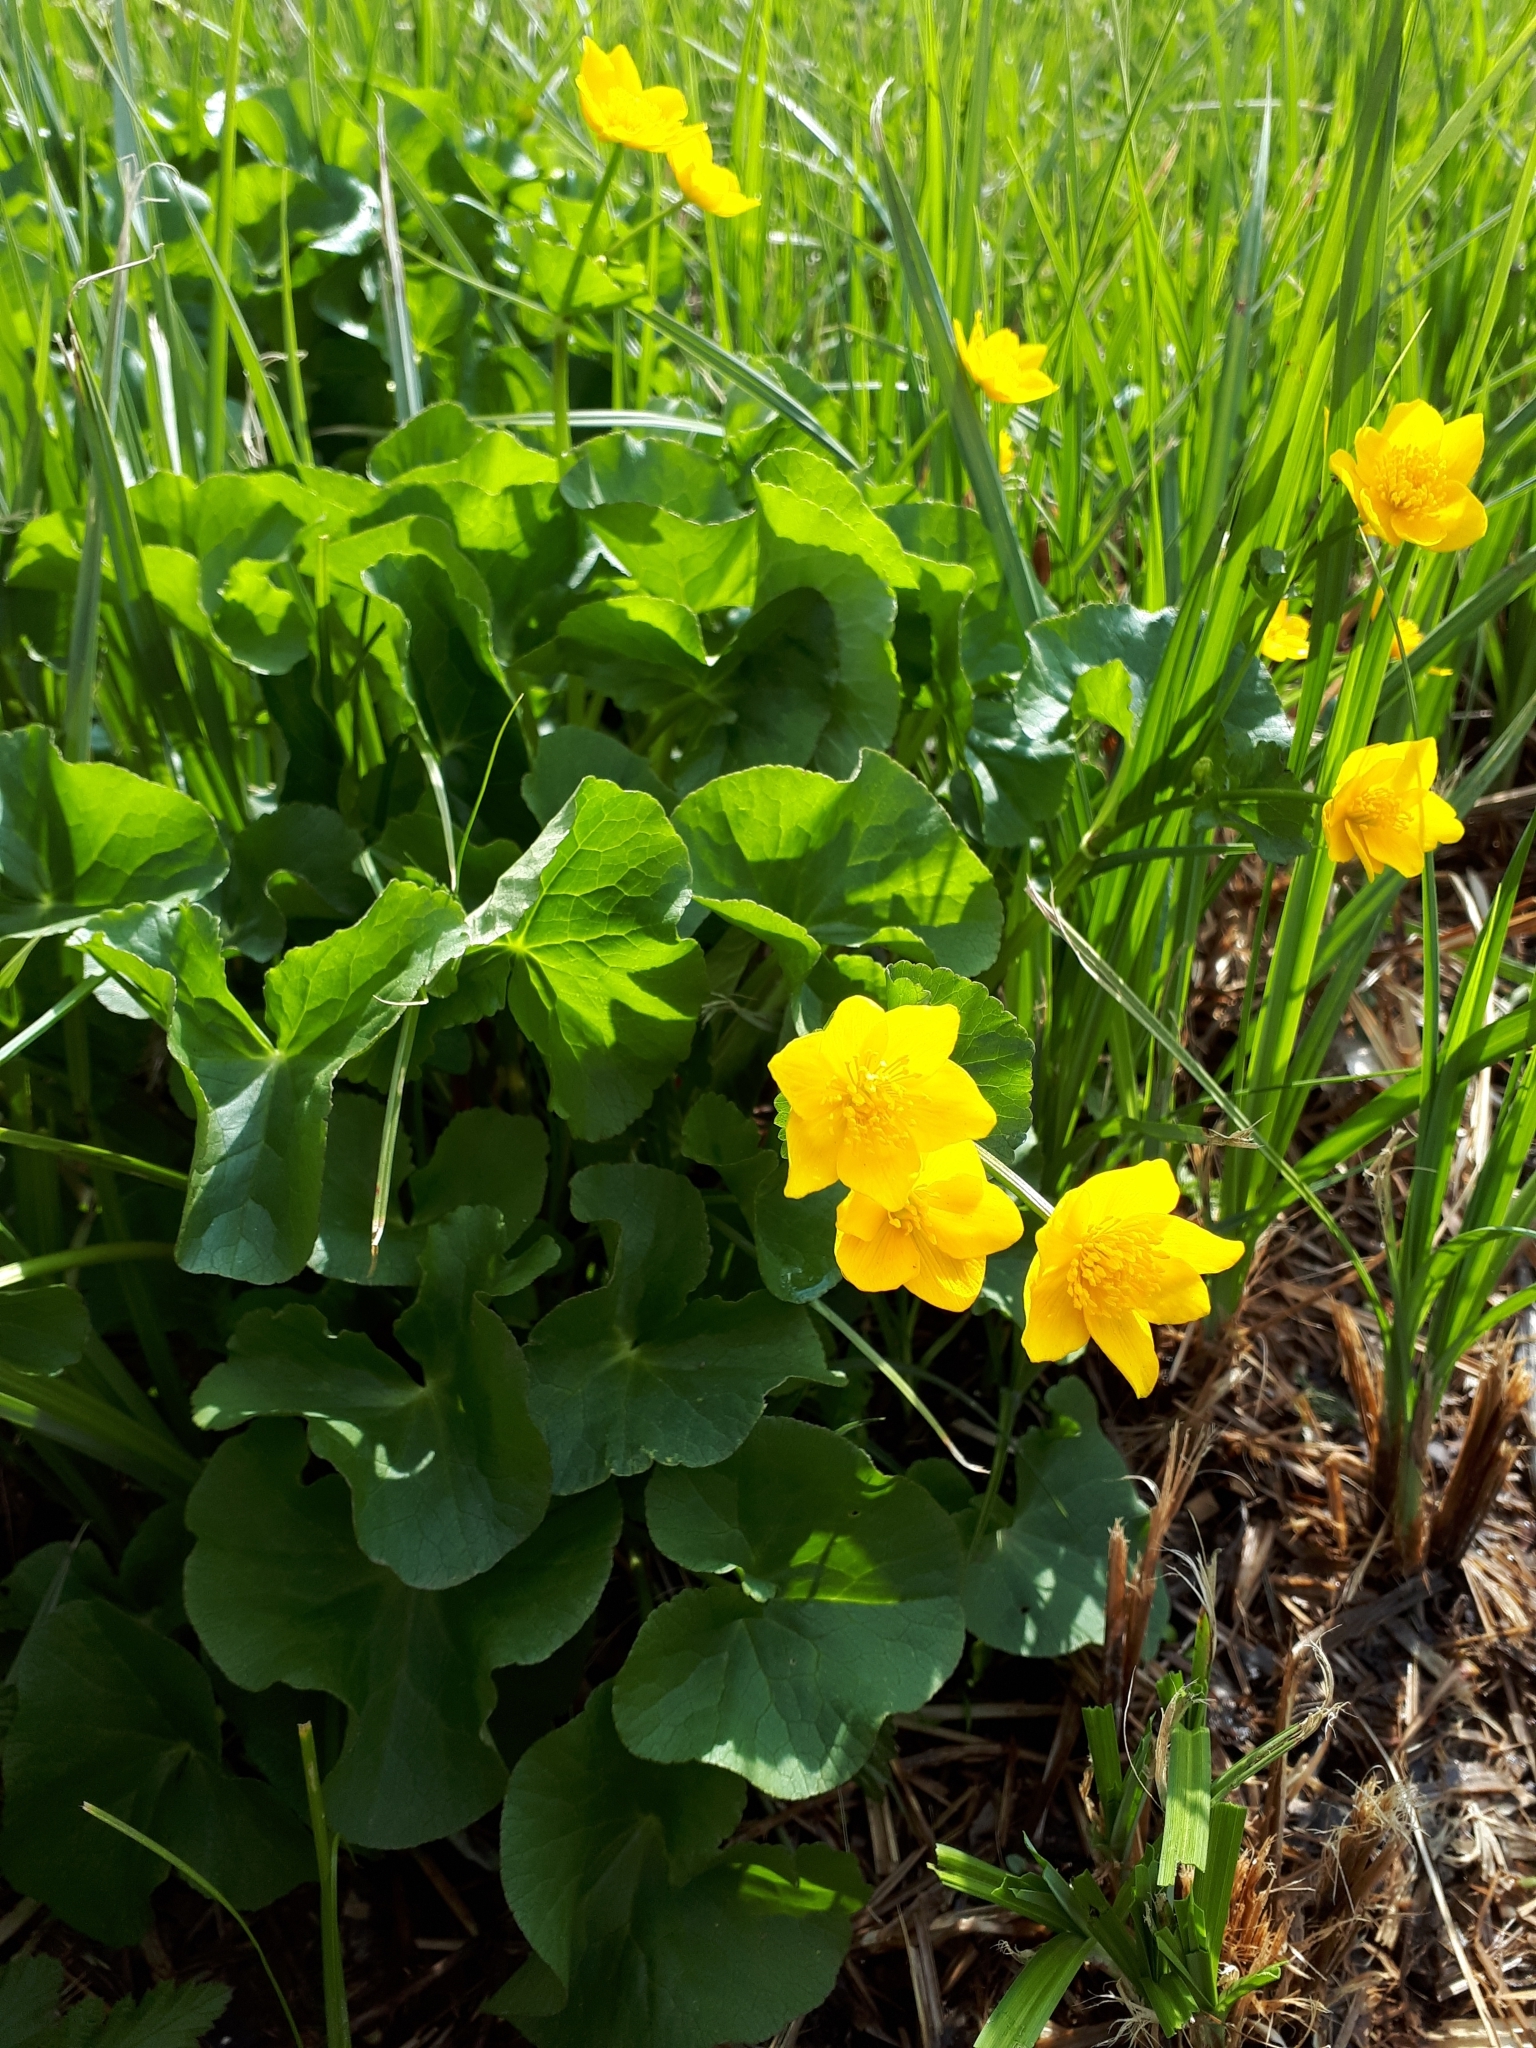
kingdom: Plantae
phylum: Tracheophyta
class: Magnoliopsida
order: Ranunculales
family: Ranunculaceae
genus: Caltha
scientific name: Caltha palustris
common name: Marsh marigold
